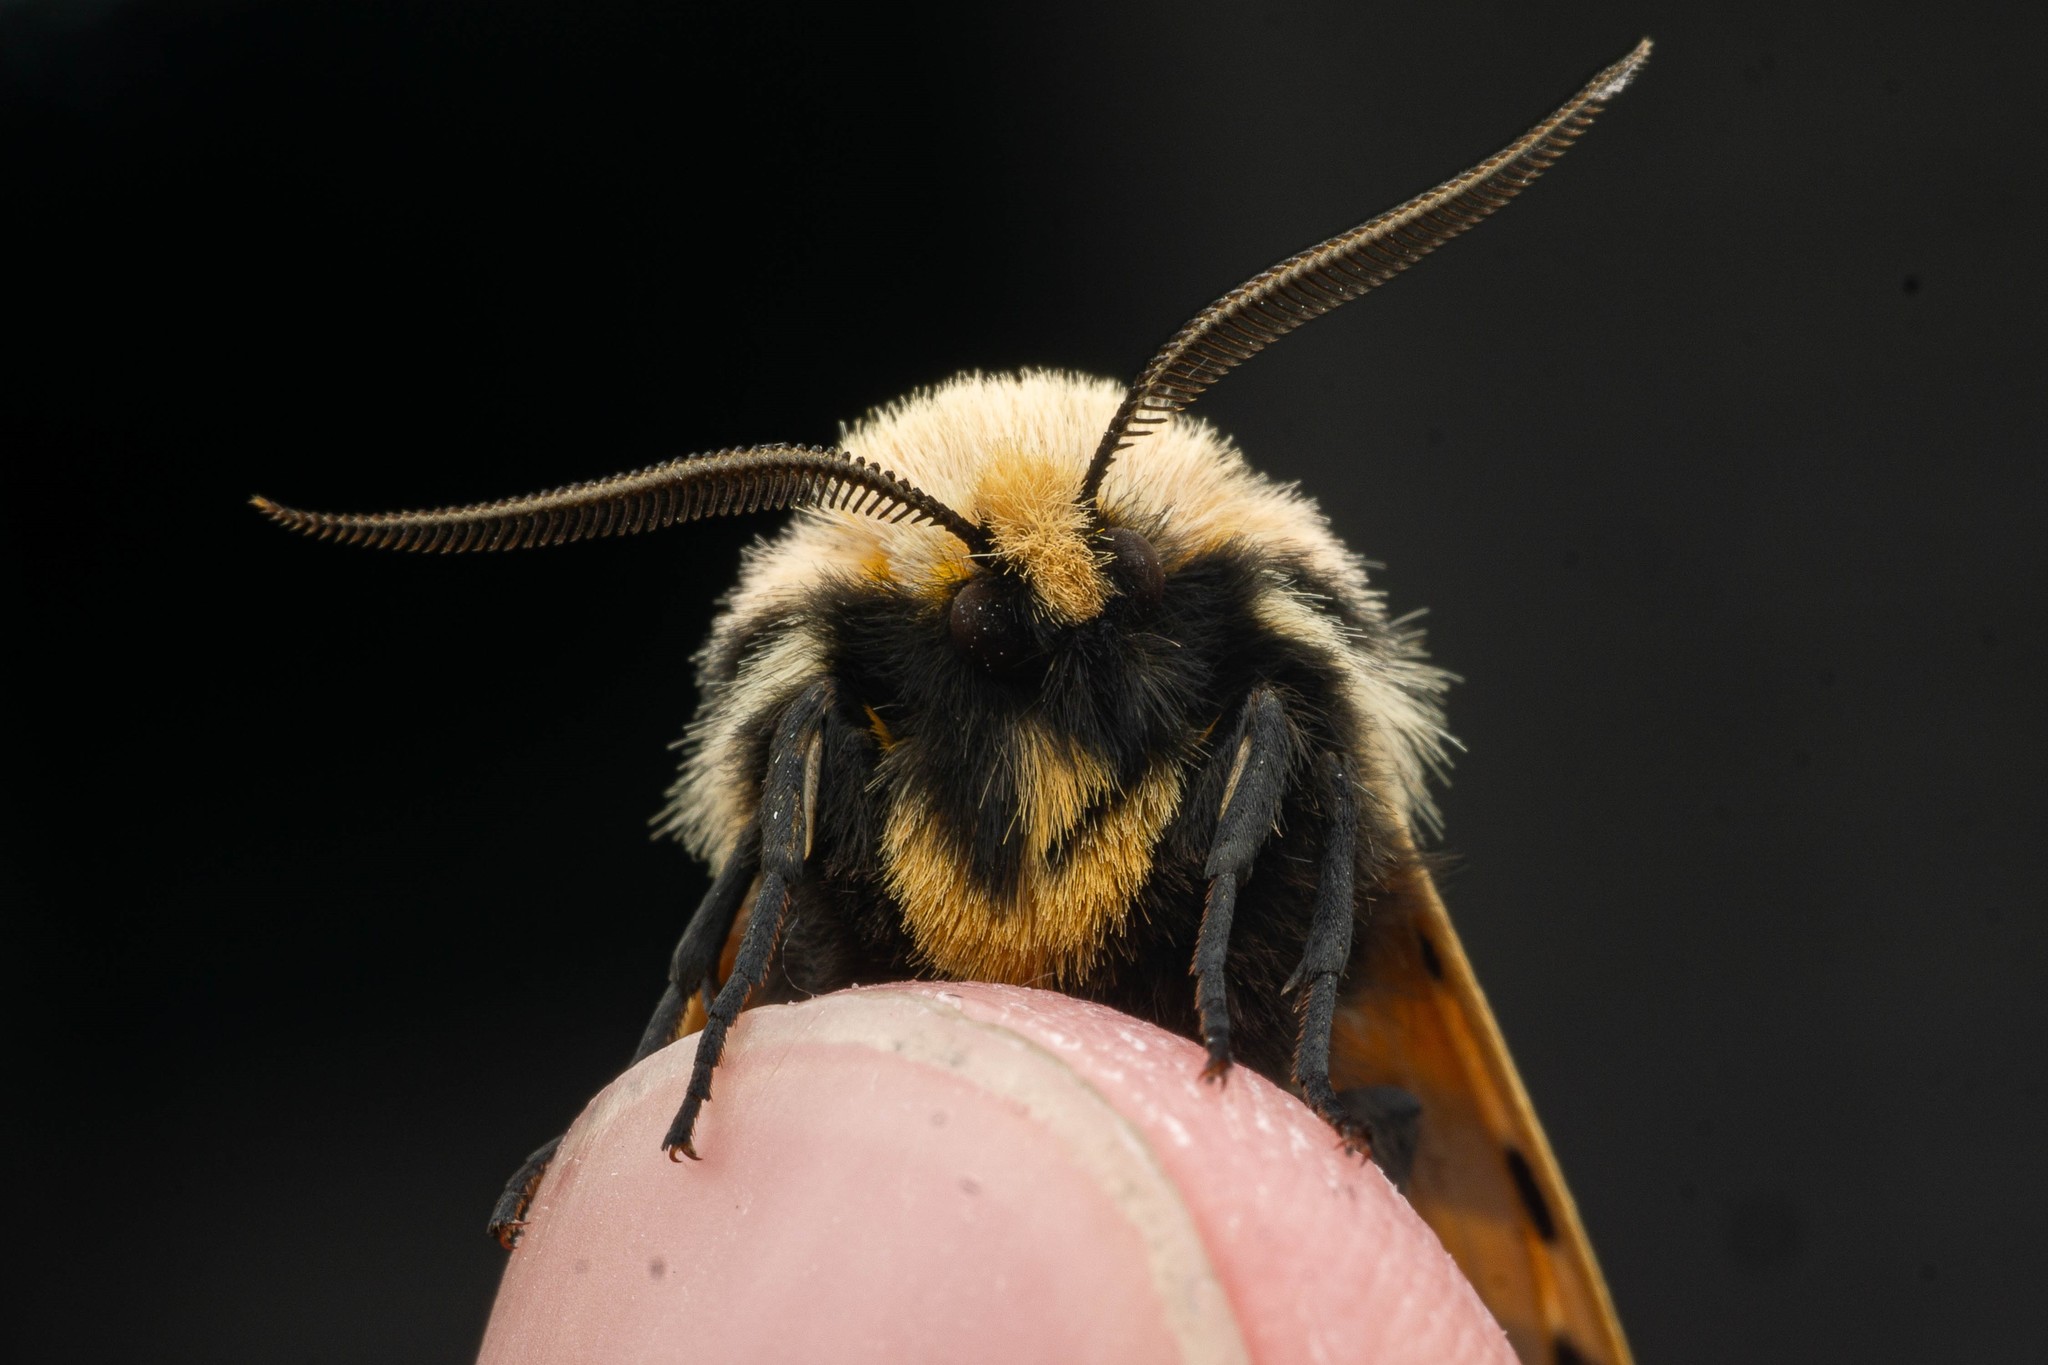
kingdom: Animalia
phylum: Arthropoda
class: Insecta
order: Lepidoptera
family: Erebidae
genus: Apantesis
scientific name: Apantesis
